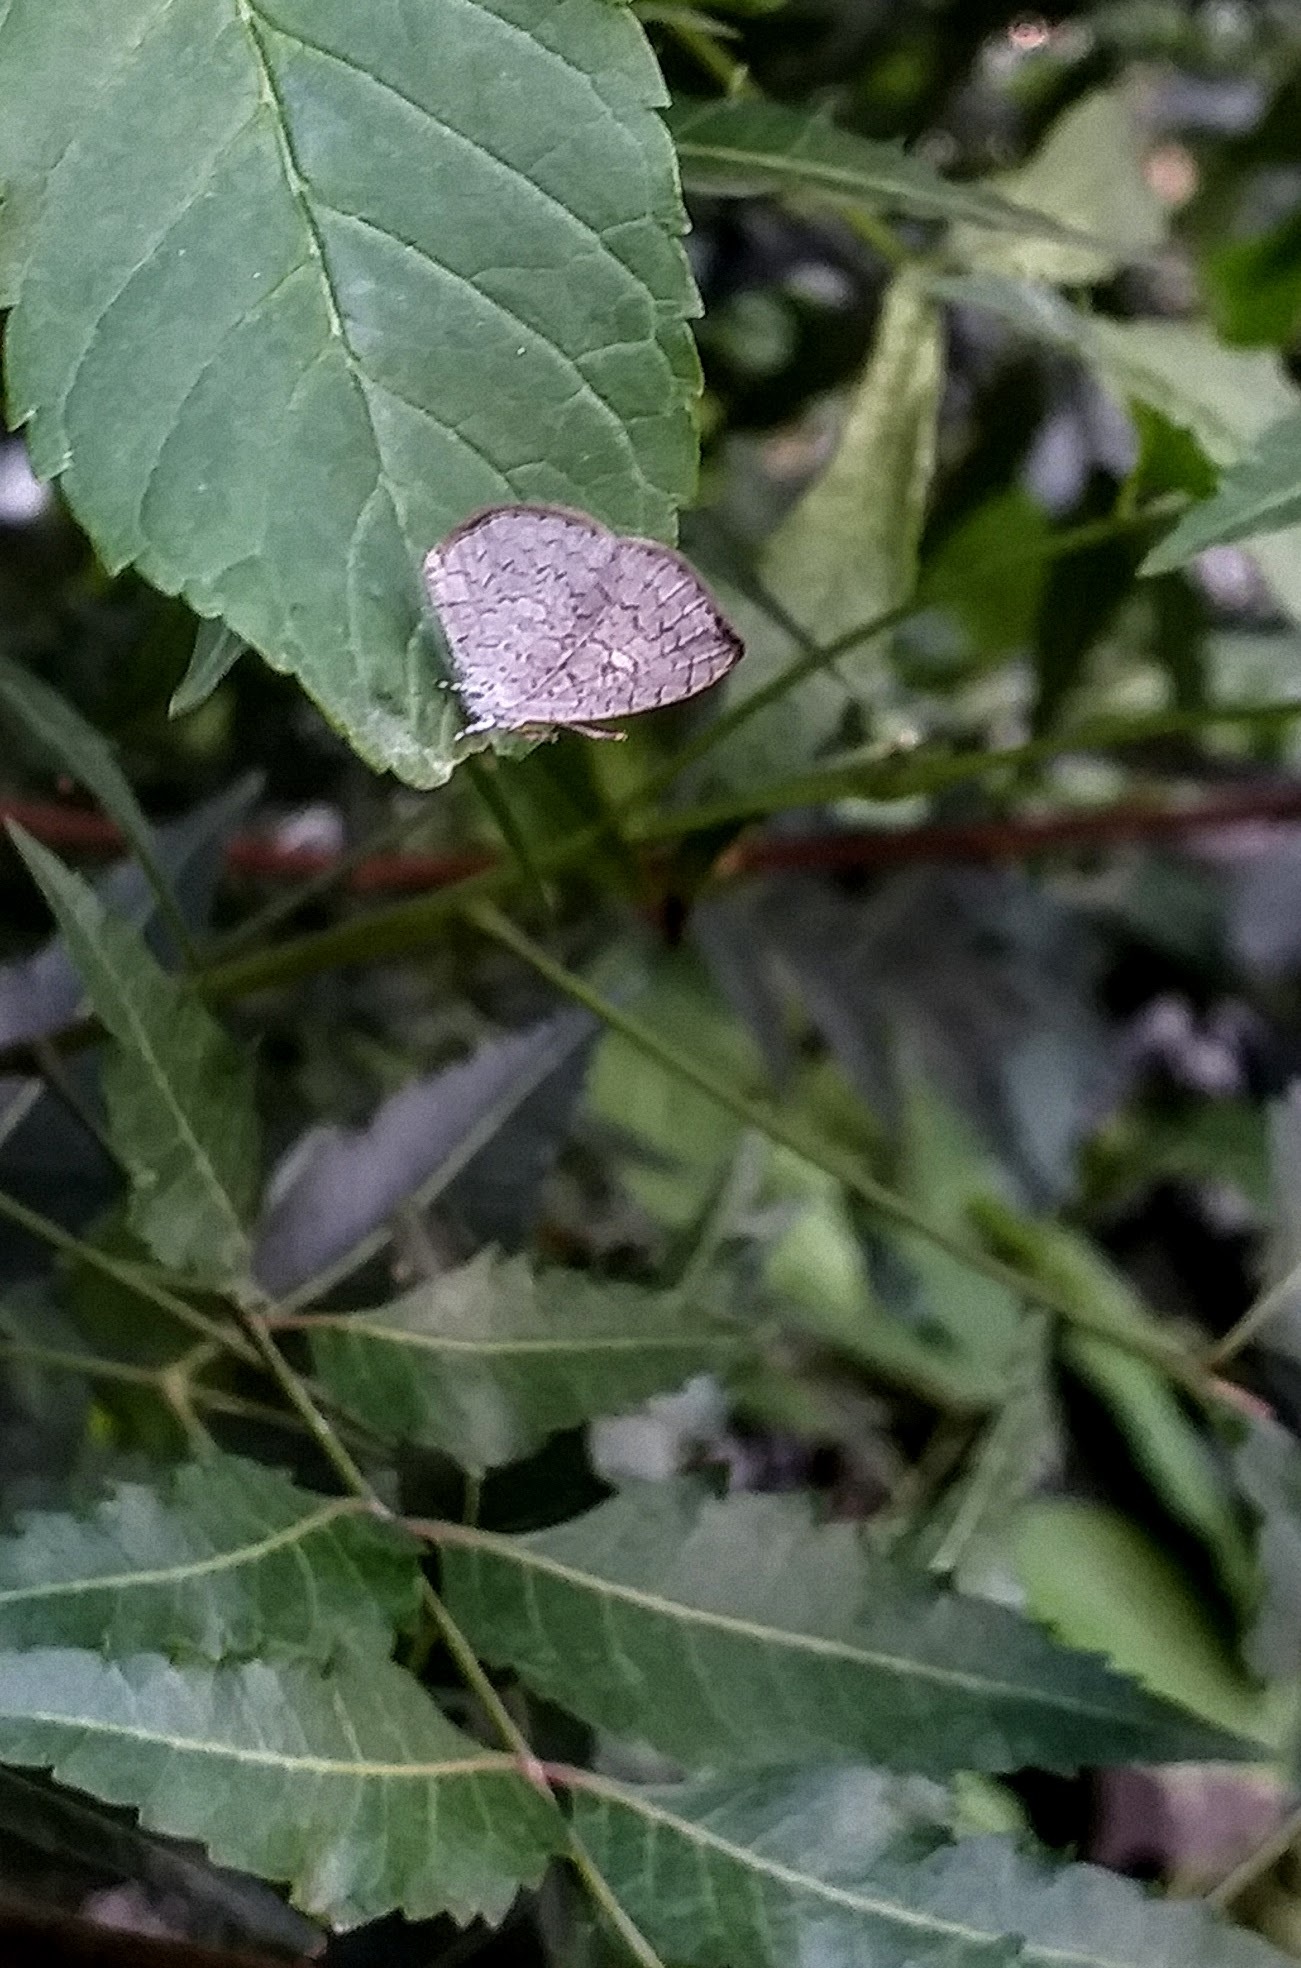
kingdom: Animalia
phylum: Arthropoda
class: Insecta
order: Lepidoptera
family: Lycaenidae
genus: Spalgis
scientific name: Spalgis epius
